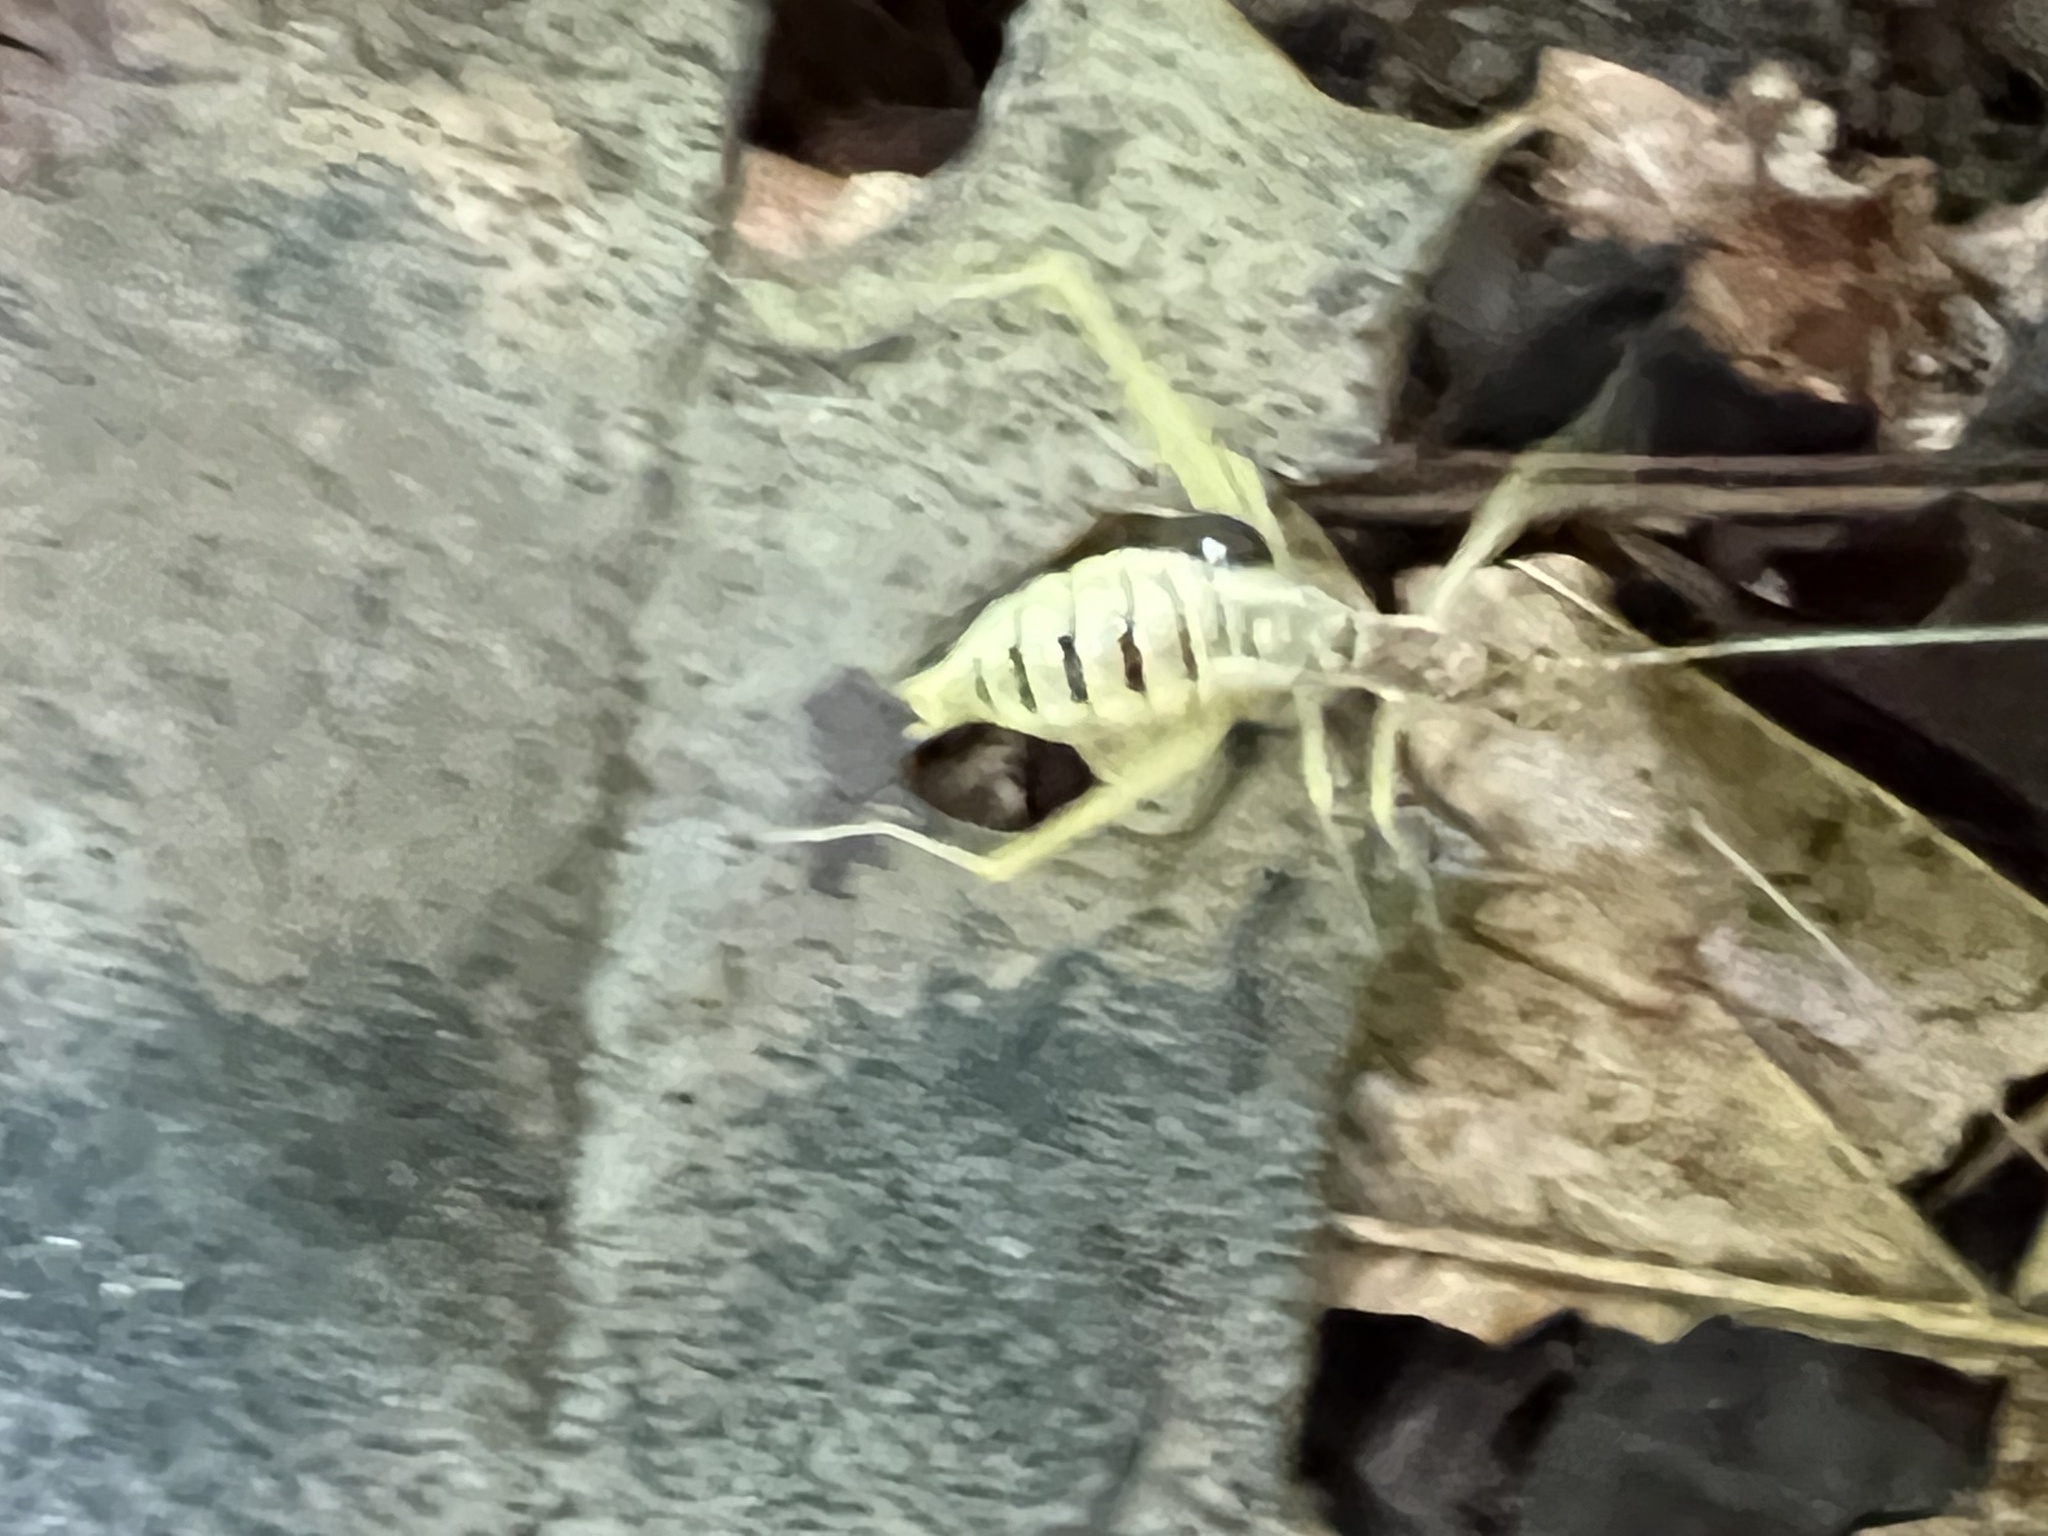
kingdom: Animalia
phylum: Arthropoda
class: Insecta
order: Orthoptera
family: Gryllidae
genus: Neoxabea
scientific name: Neoxabea bipunctata
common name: Two-spotted tree cricket
